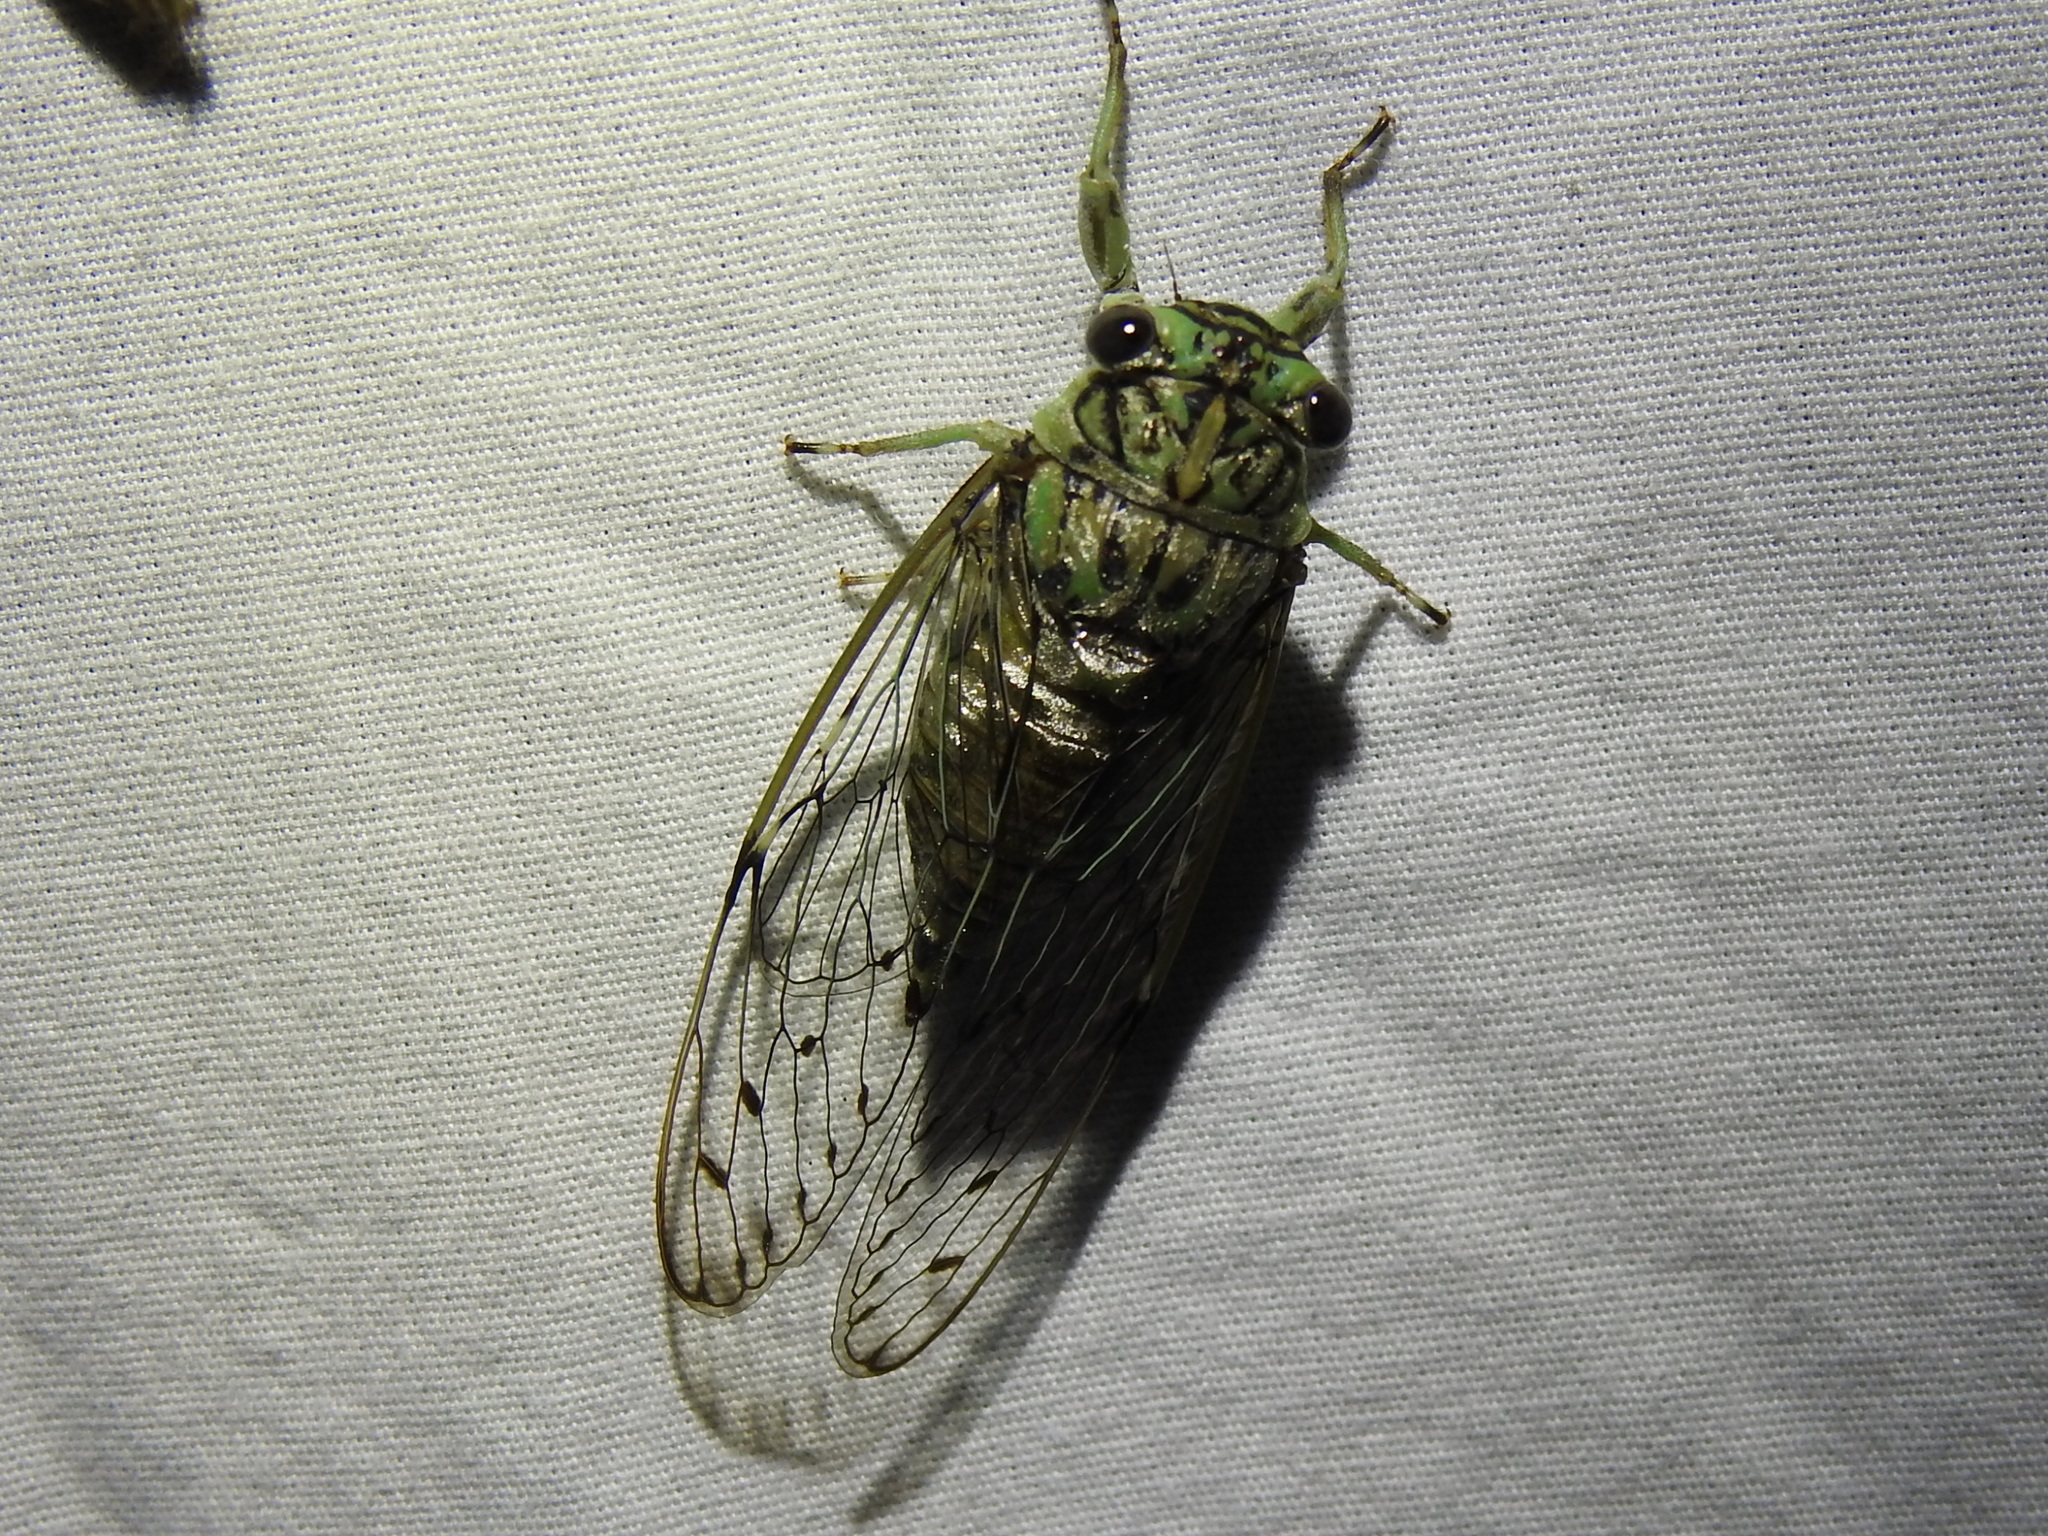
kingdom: Animalia
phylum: Arthropoda
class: Insecta
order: Hemiptera
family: Cicadidae
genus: Neocicada
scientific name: Neocicada hieroglyphica
